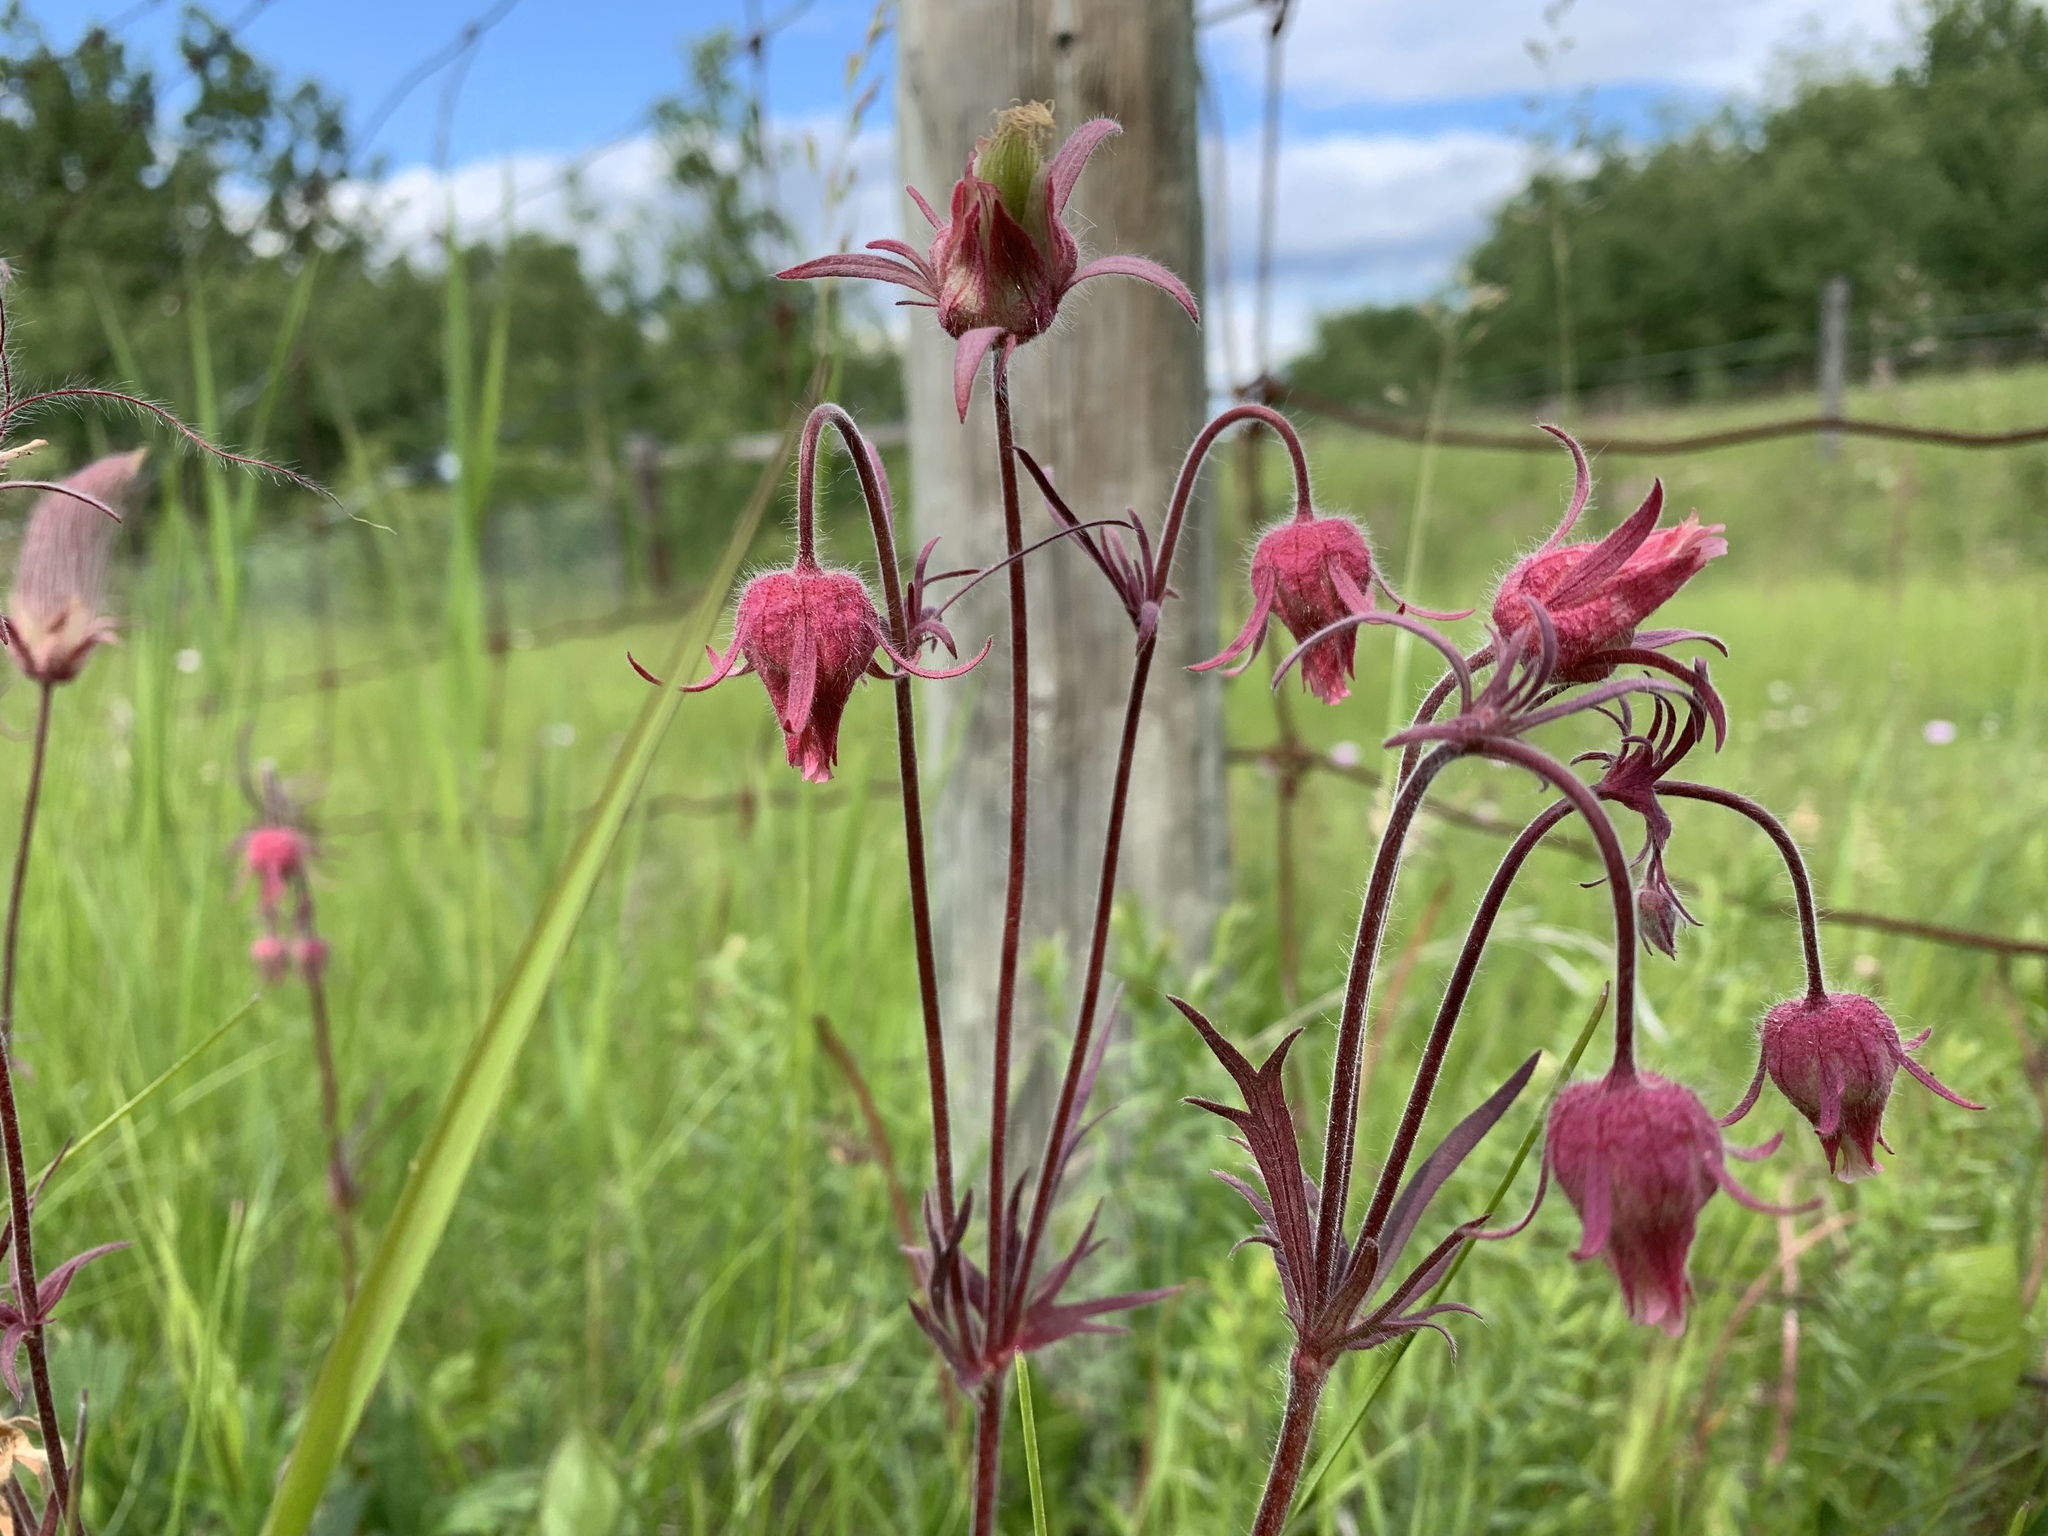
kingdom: Plantae
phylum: Tracheophyta
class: Magnoliopsida
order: Rosales
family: Rosaceae
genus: Geum
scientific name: Geum triflorum
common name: Old man's whiskers
